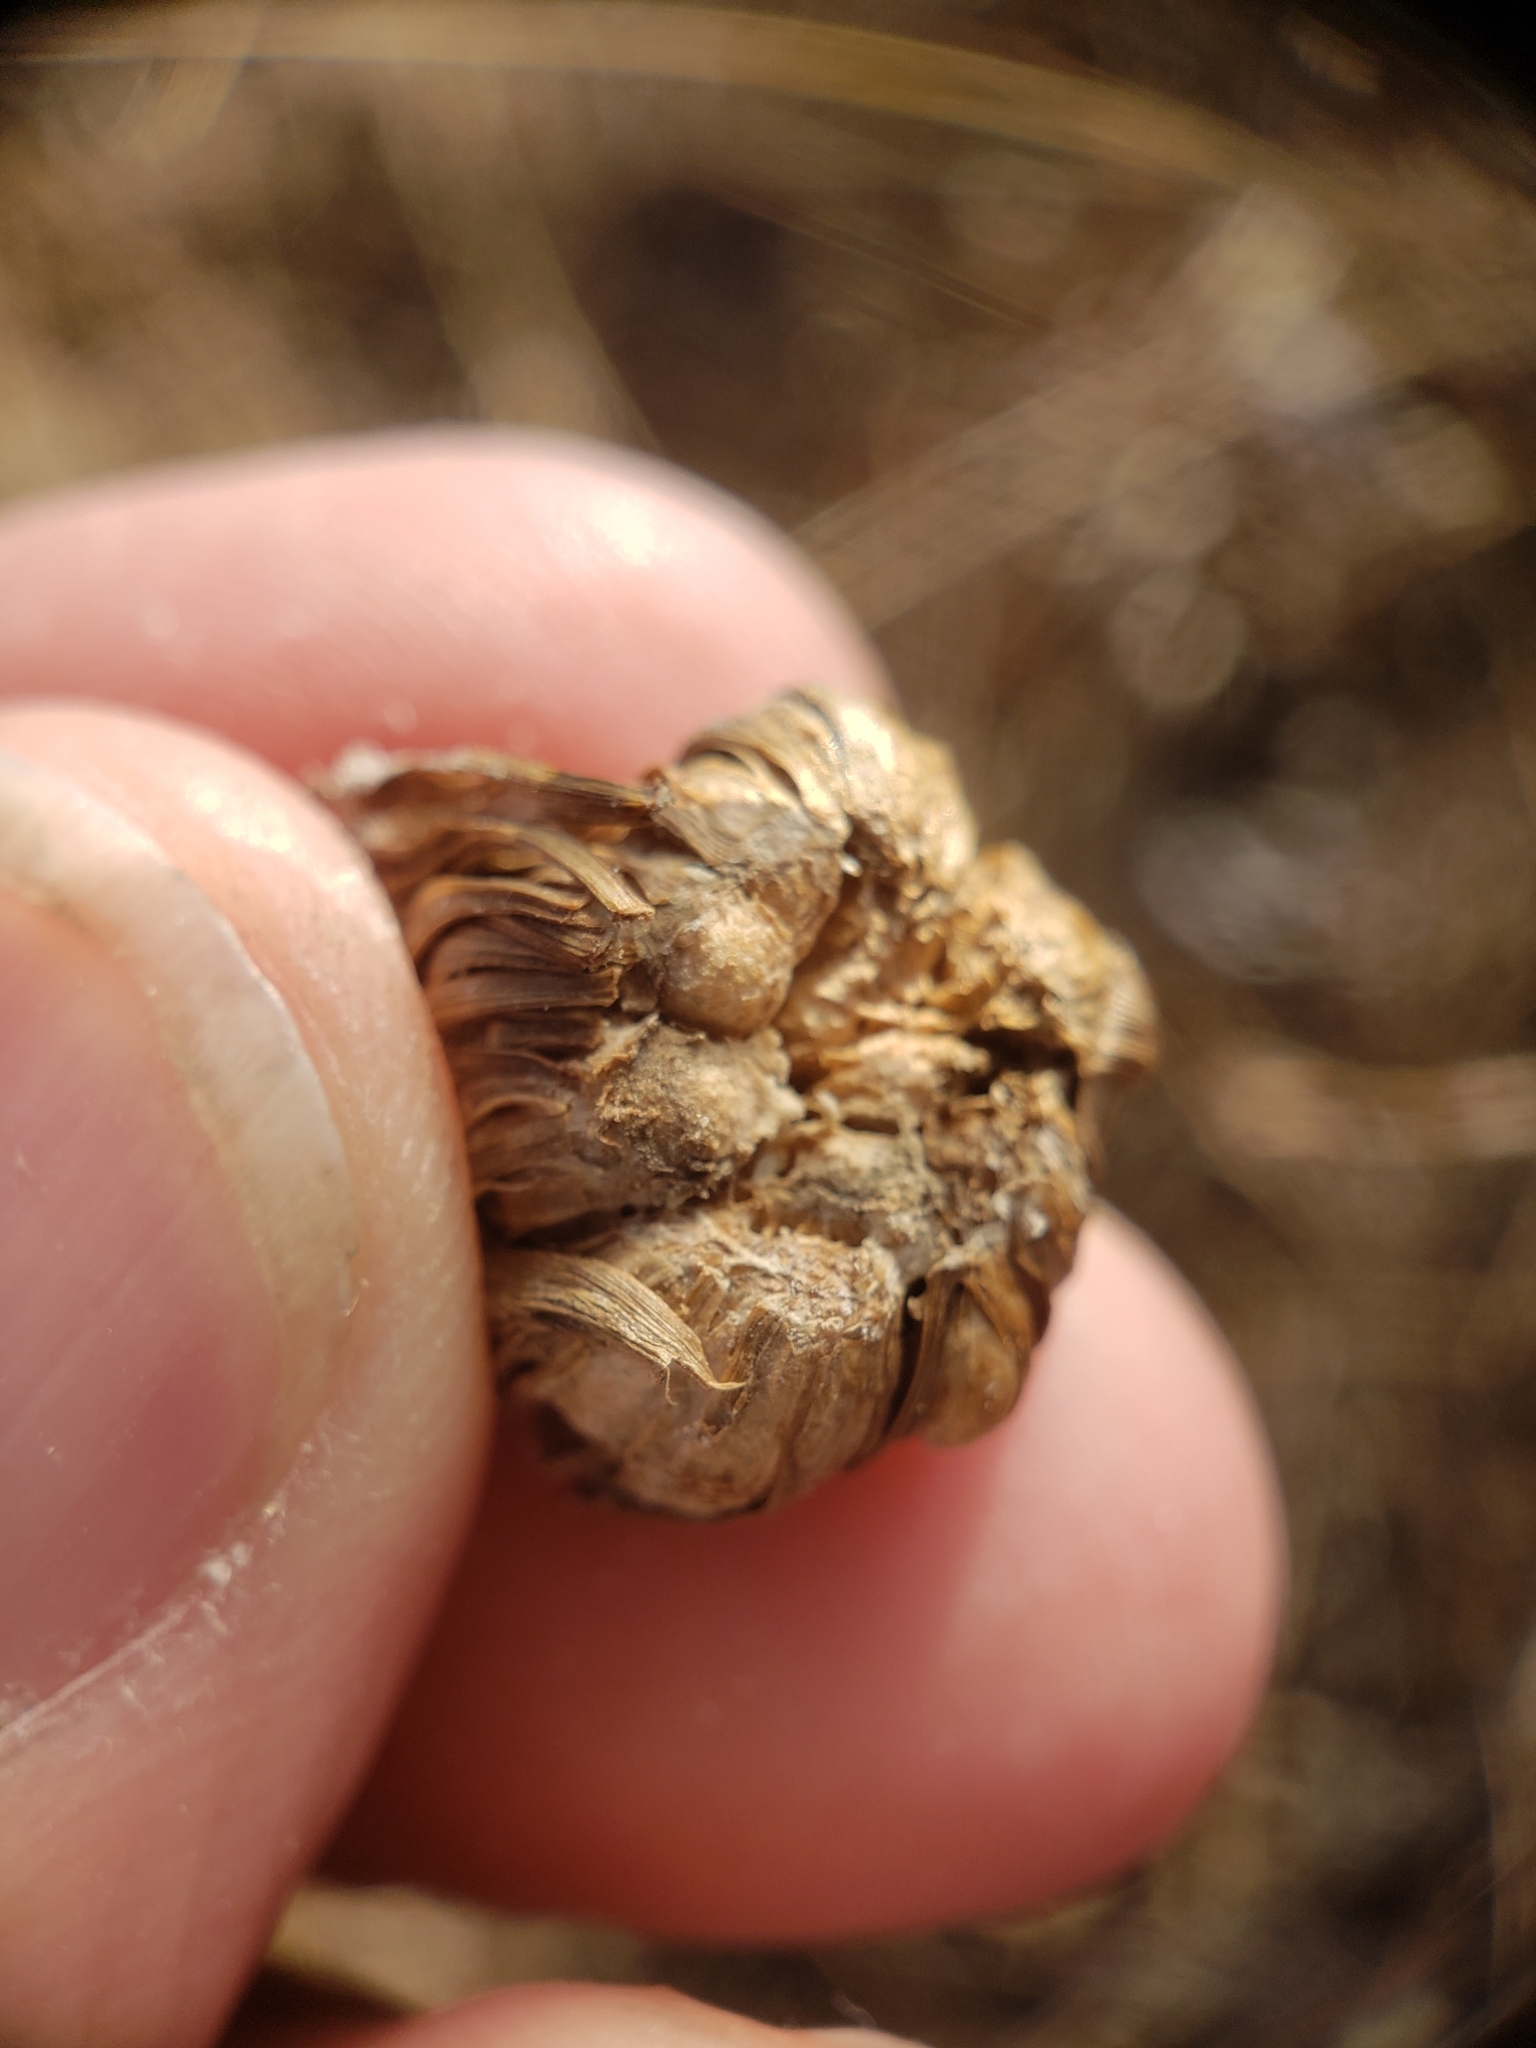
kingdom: Animalia
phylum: Arthropoda
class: Insecta
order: Hymenoptera
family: Cynipidae
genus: Antistrophus
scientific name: Antistrophus
